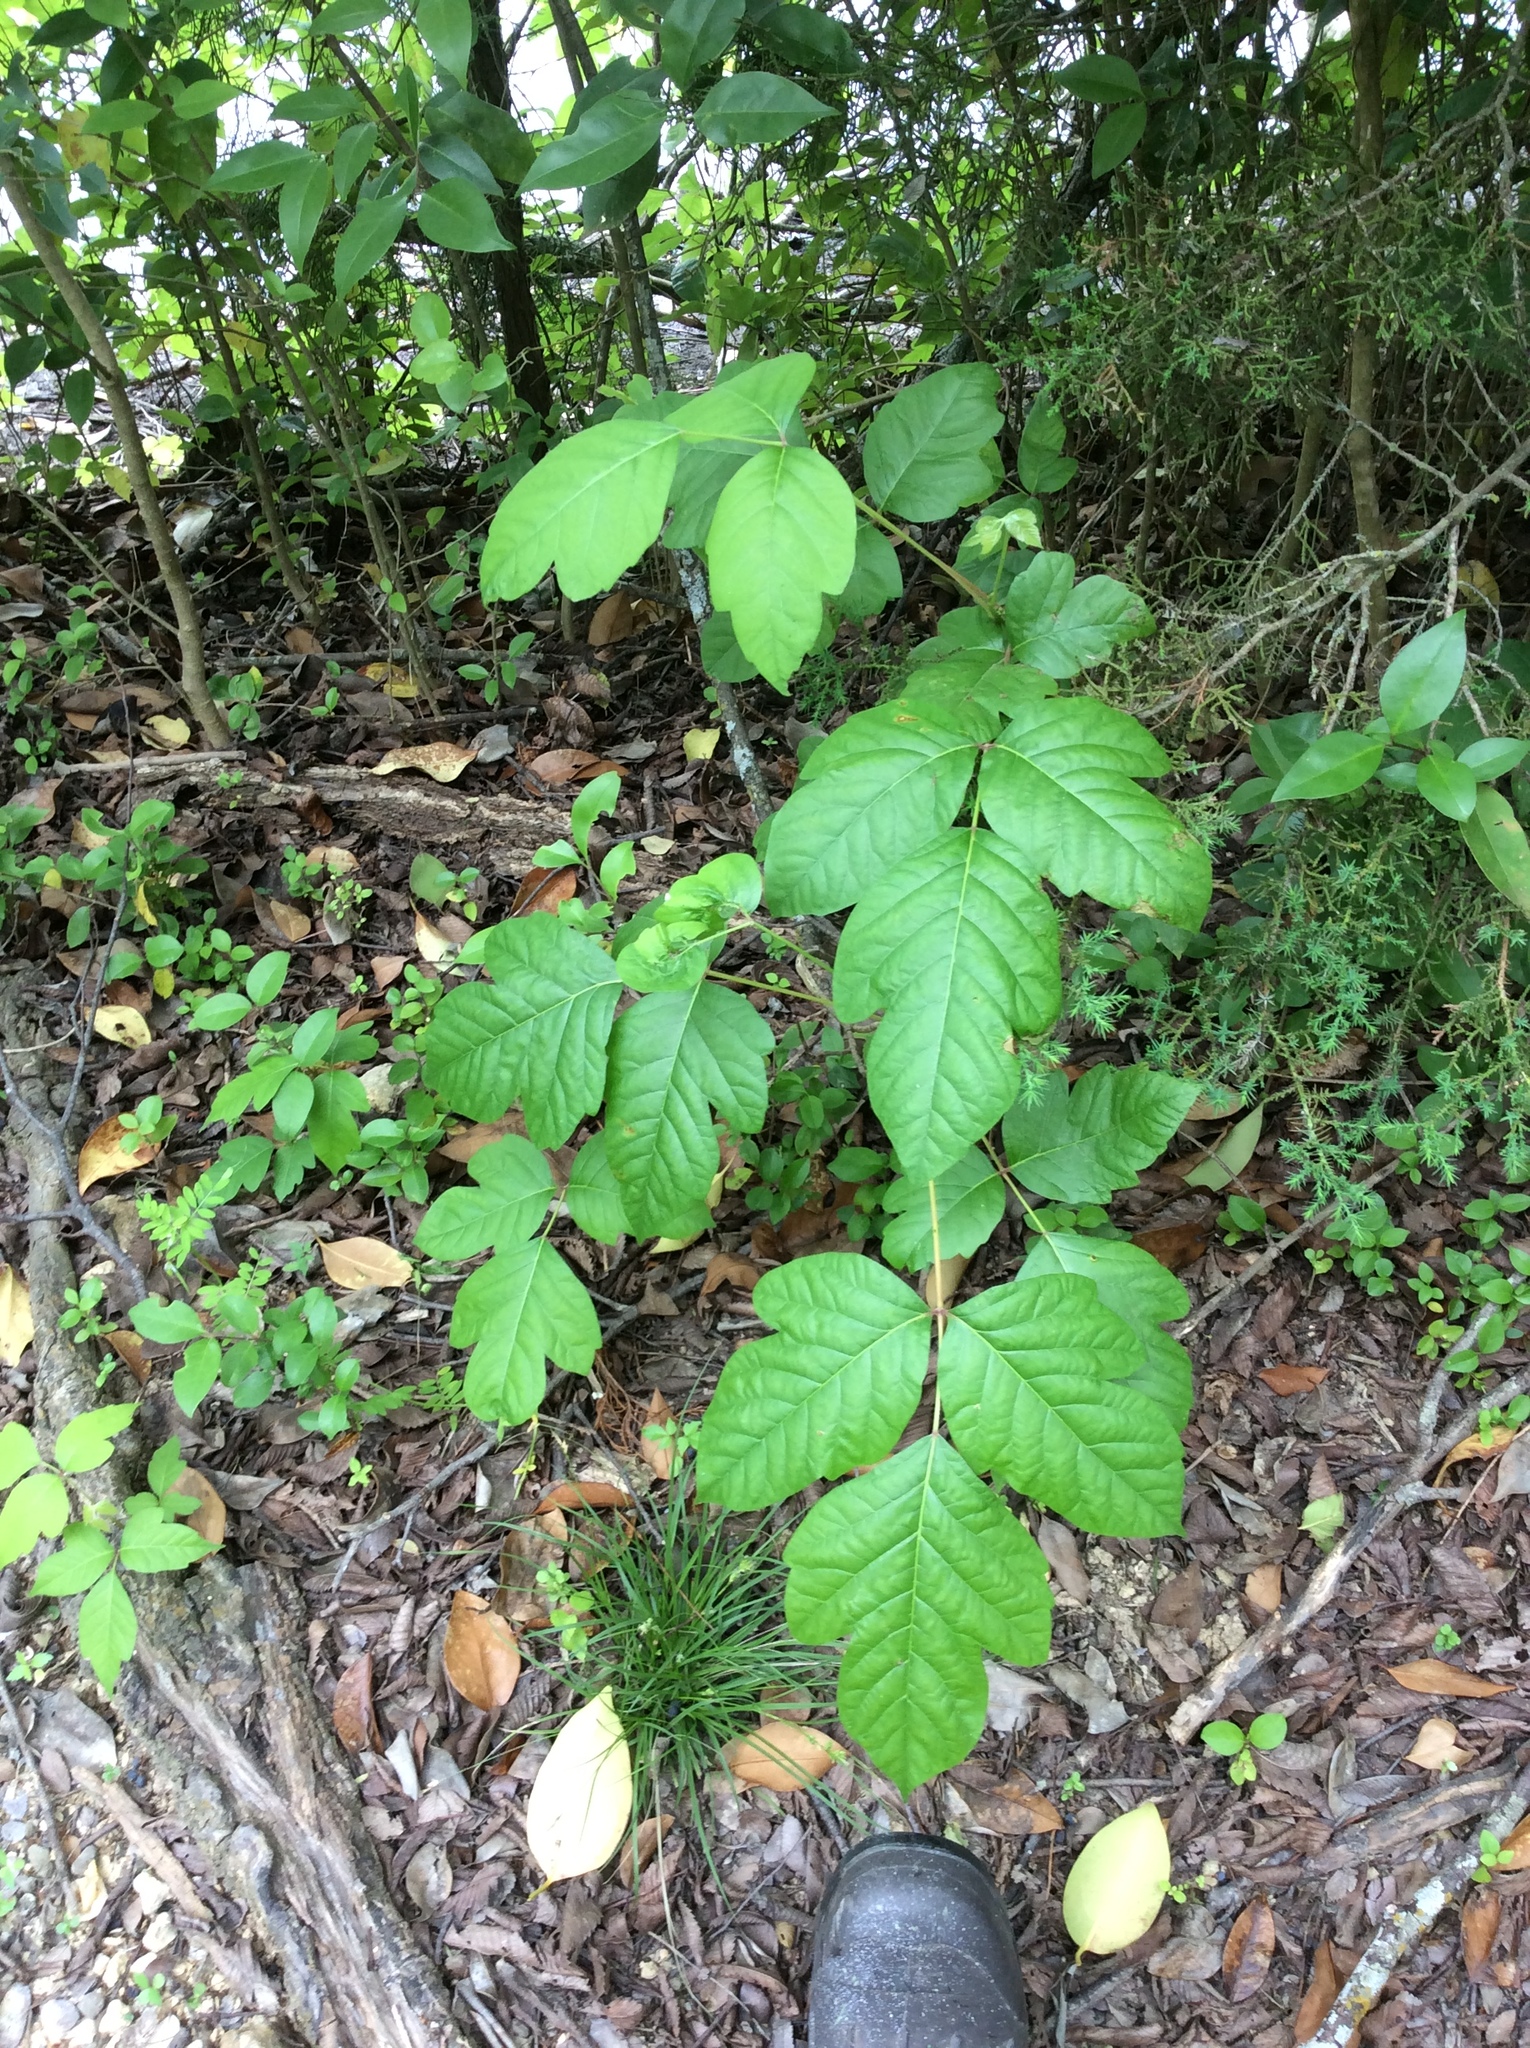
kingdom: Plantae
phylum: Tracheophyta
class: Magnoliopsida
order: Sapindales
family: Anacardiaceae
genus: Toxicodendron
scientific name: Toxicodendron radicans
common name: Poison ivy
